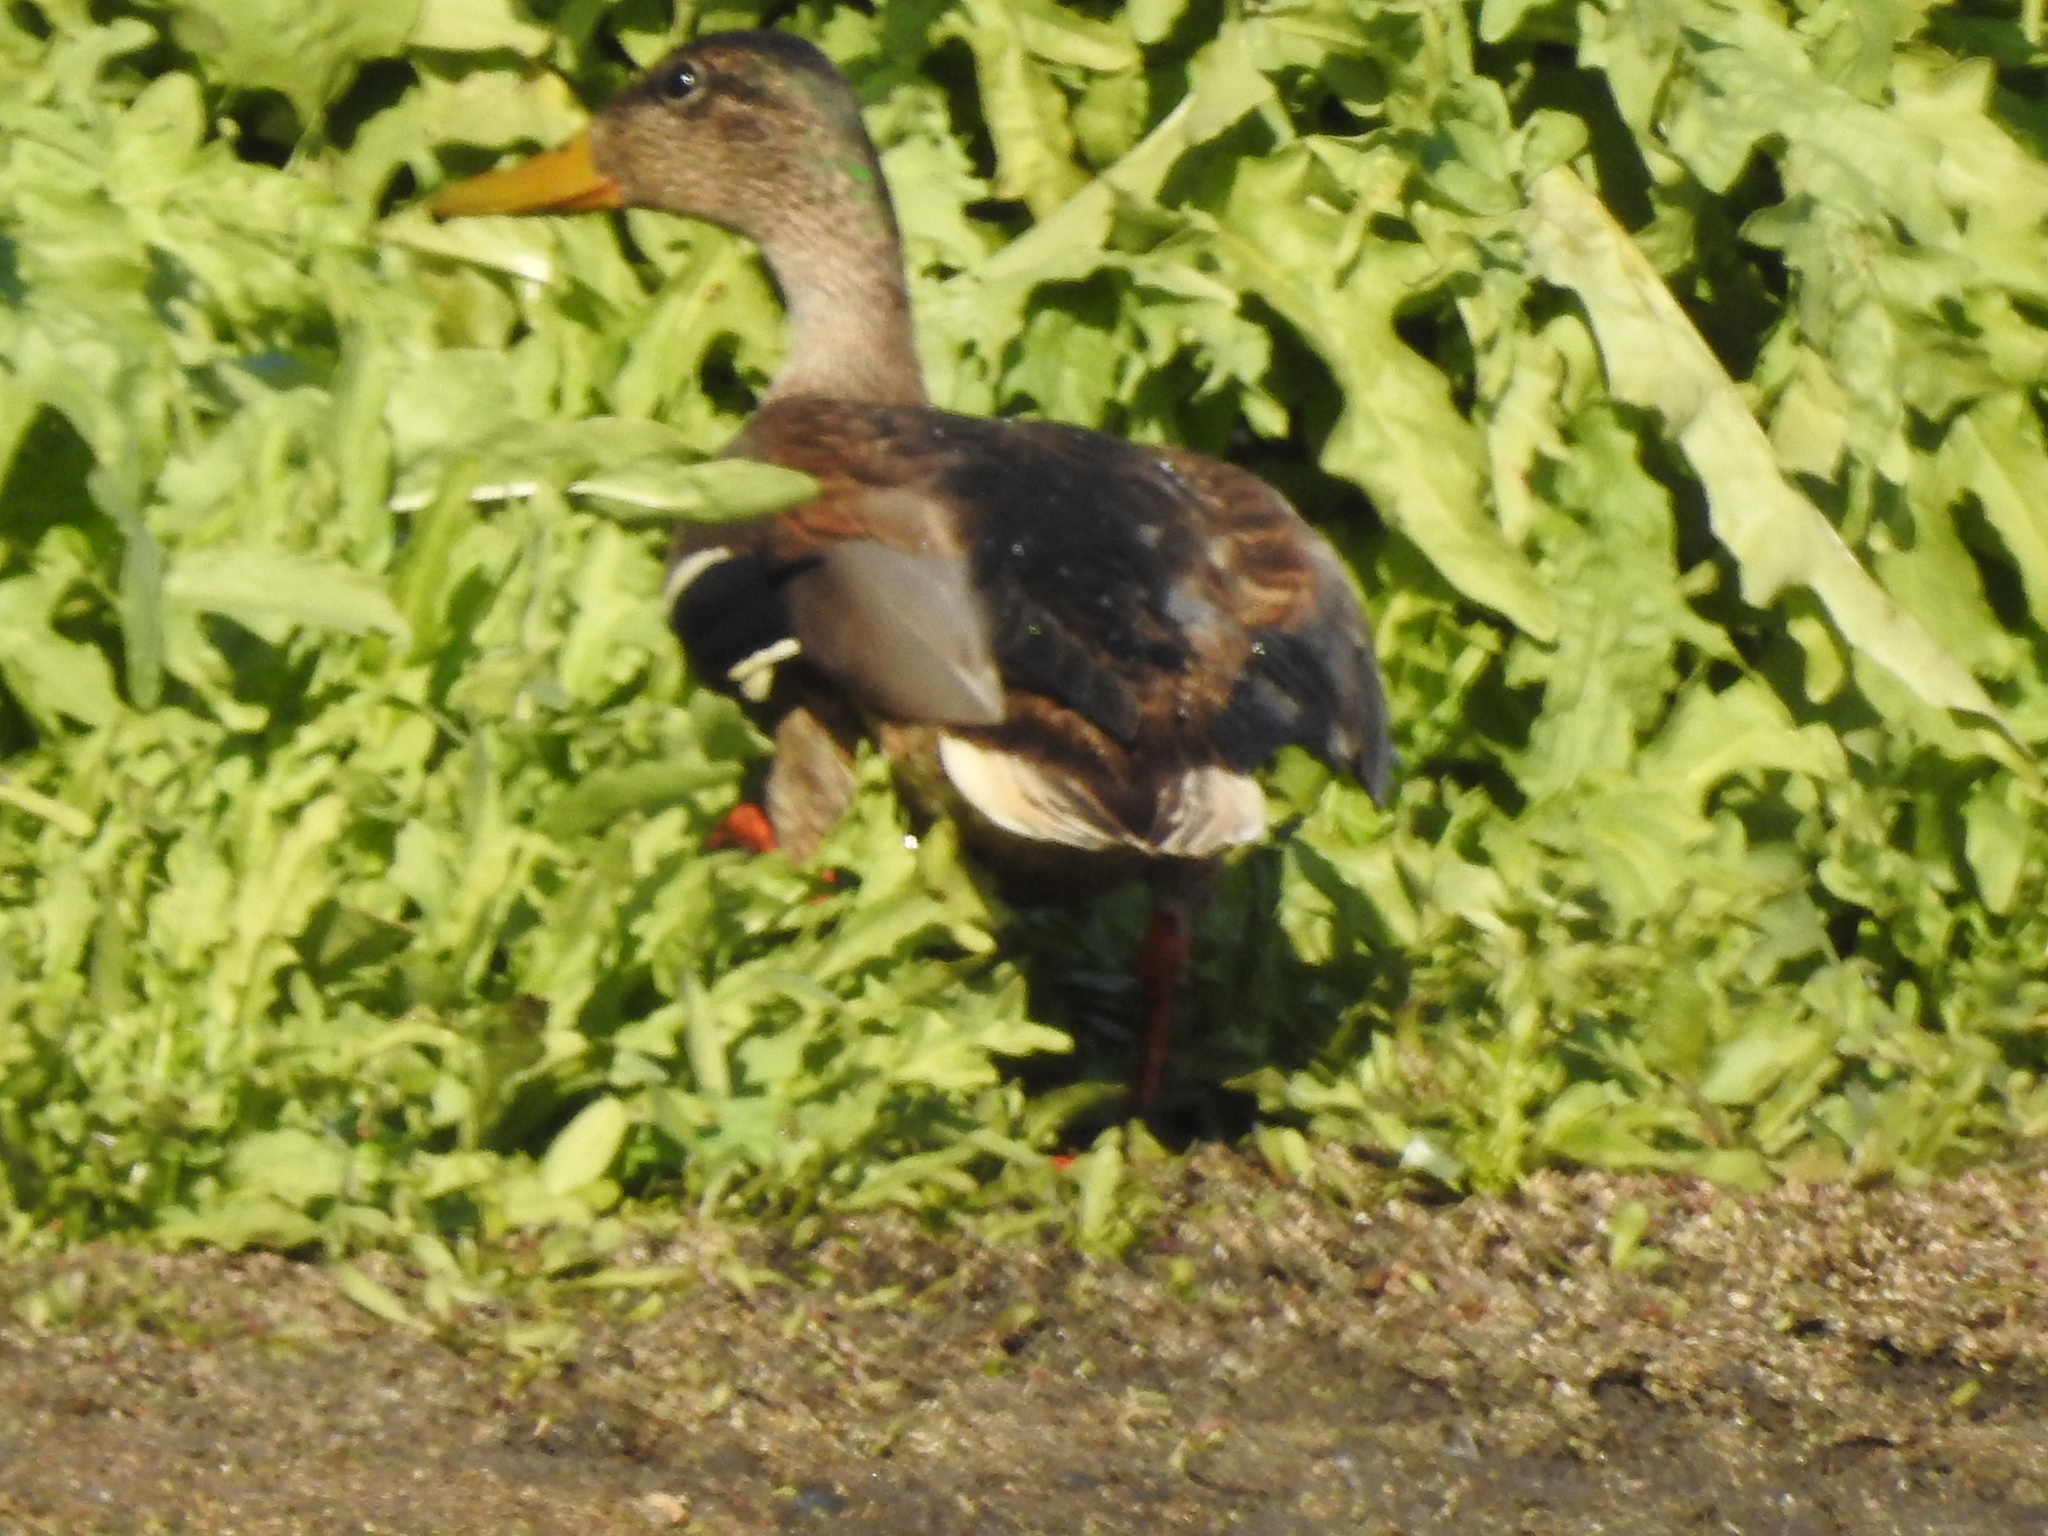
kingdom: Animalia
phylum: Chordata
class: Aves
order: Anseriformes
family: Anatidae
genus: Anas
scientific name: Anas platyrhynchos
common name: Mallard
